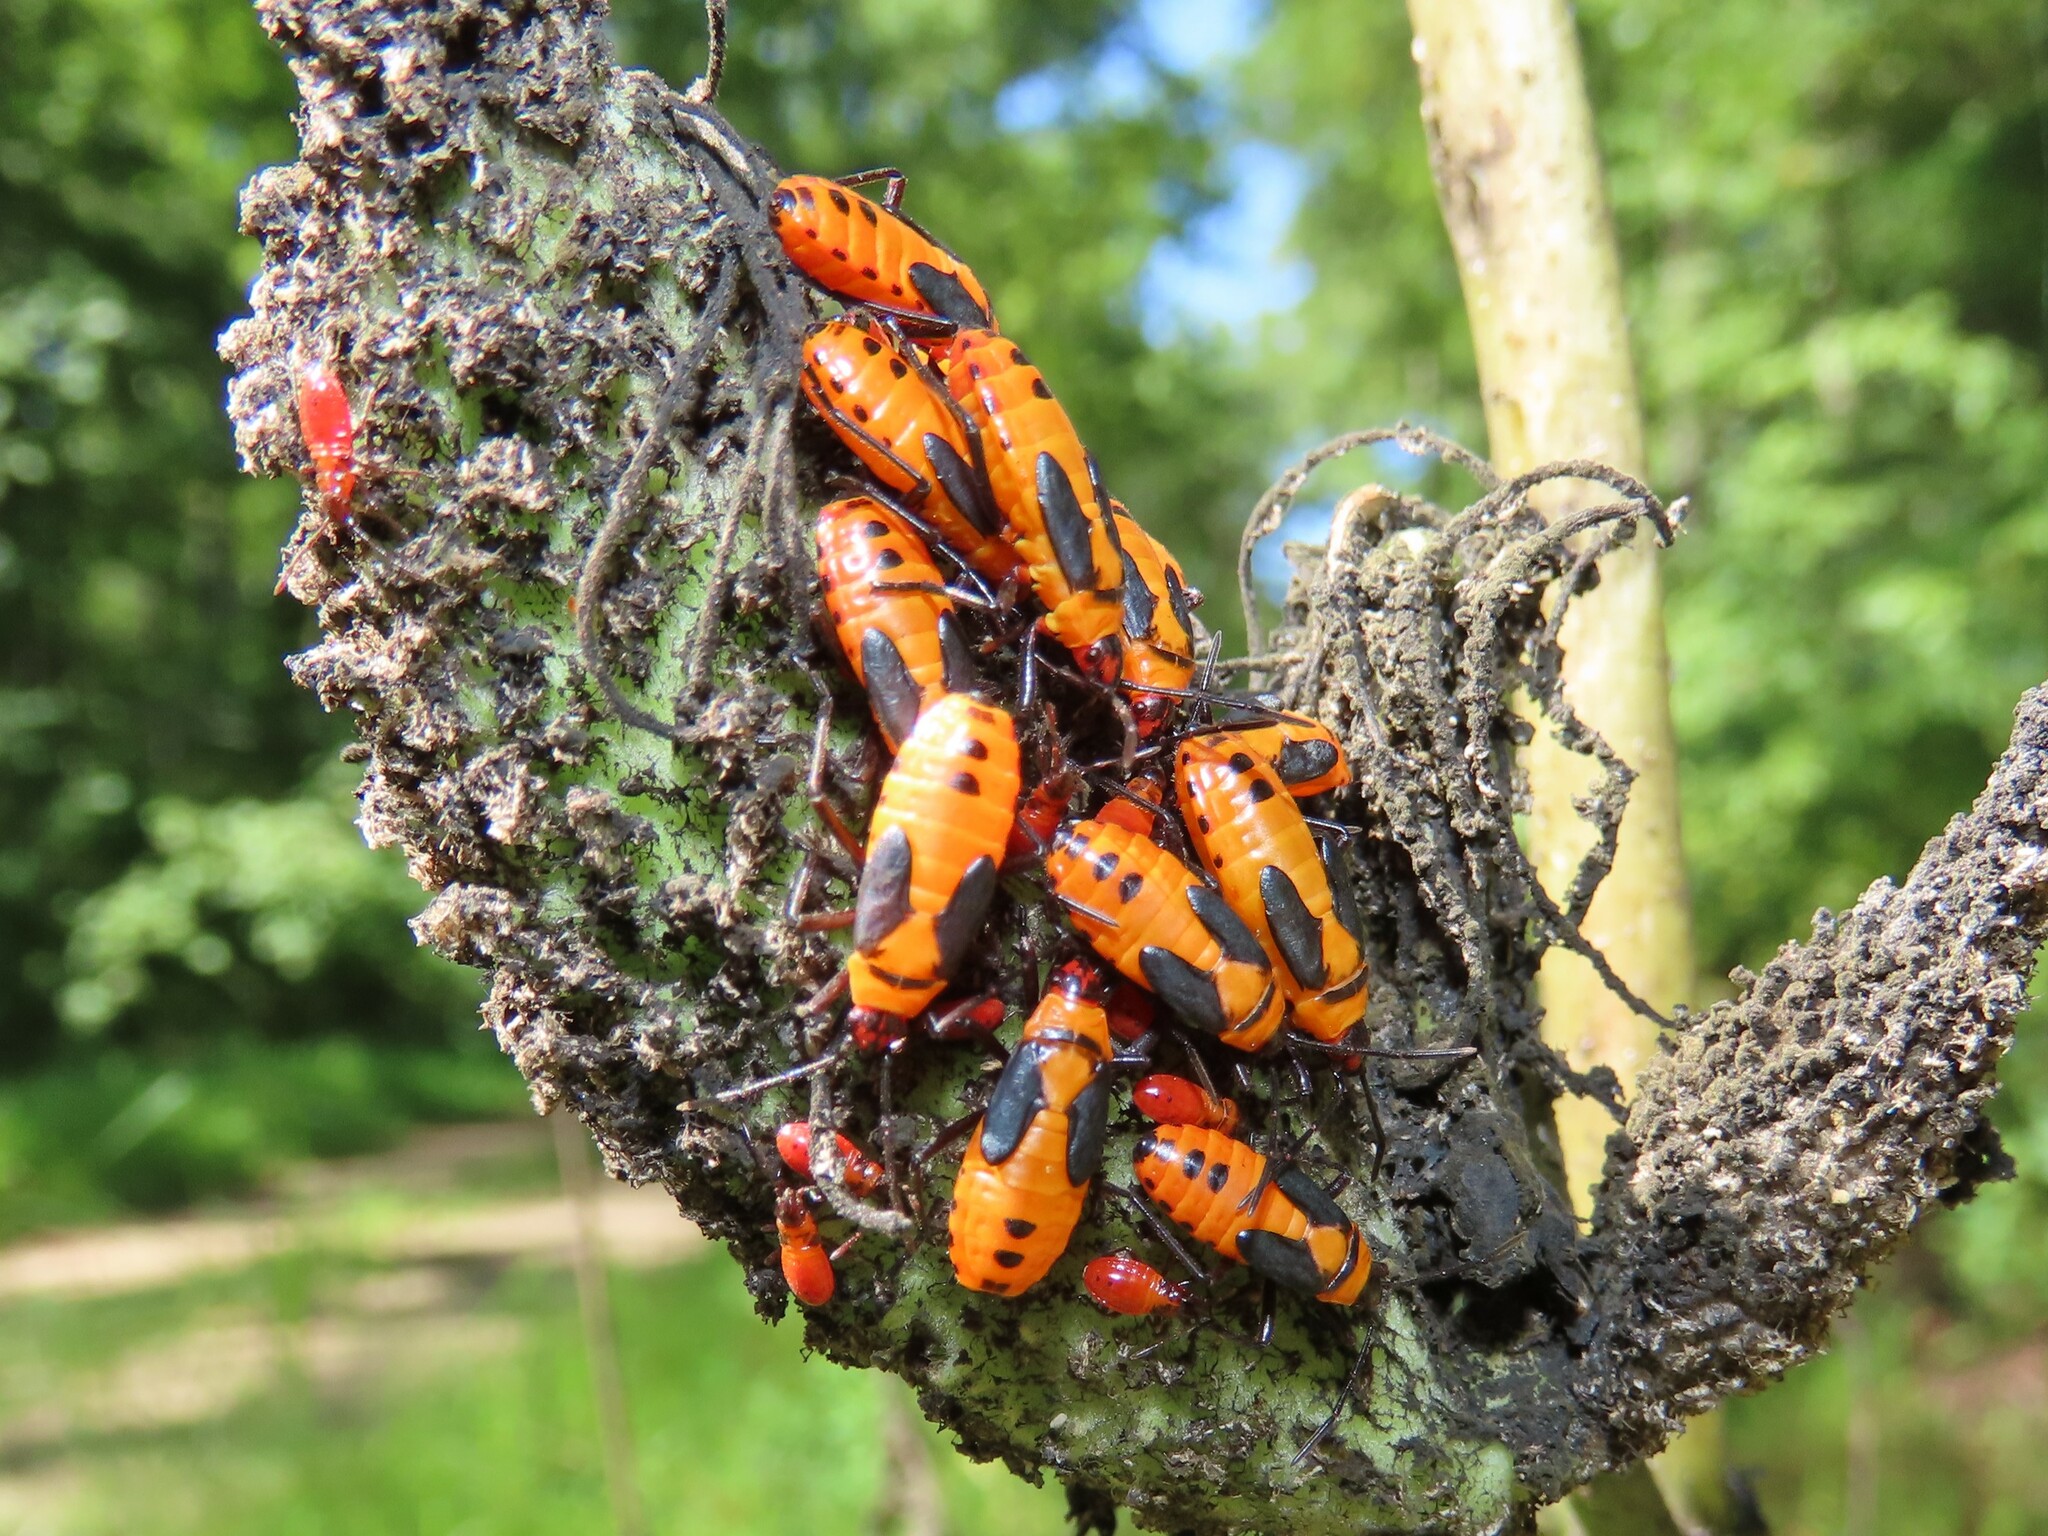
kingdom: Animalia
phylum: Arthropoda
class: Insecta
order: Hemiptera
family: Lygaeidae
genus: Oncopeltus
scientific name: Oncopeltus fasciatus
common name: Large milkweed bug
